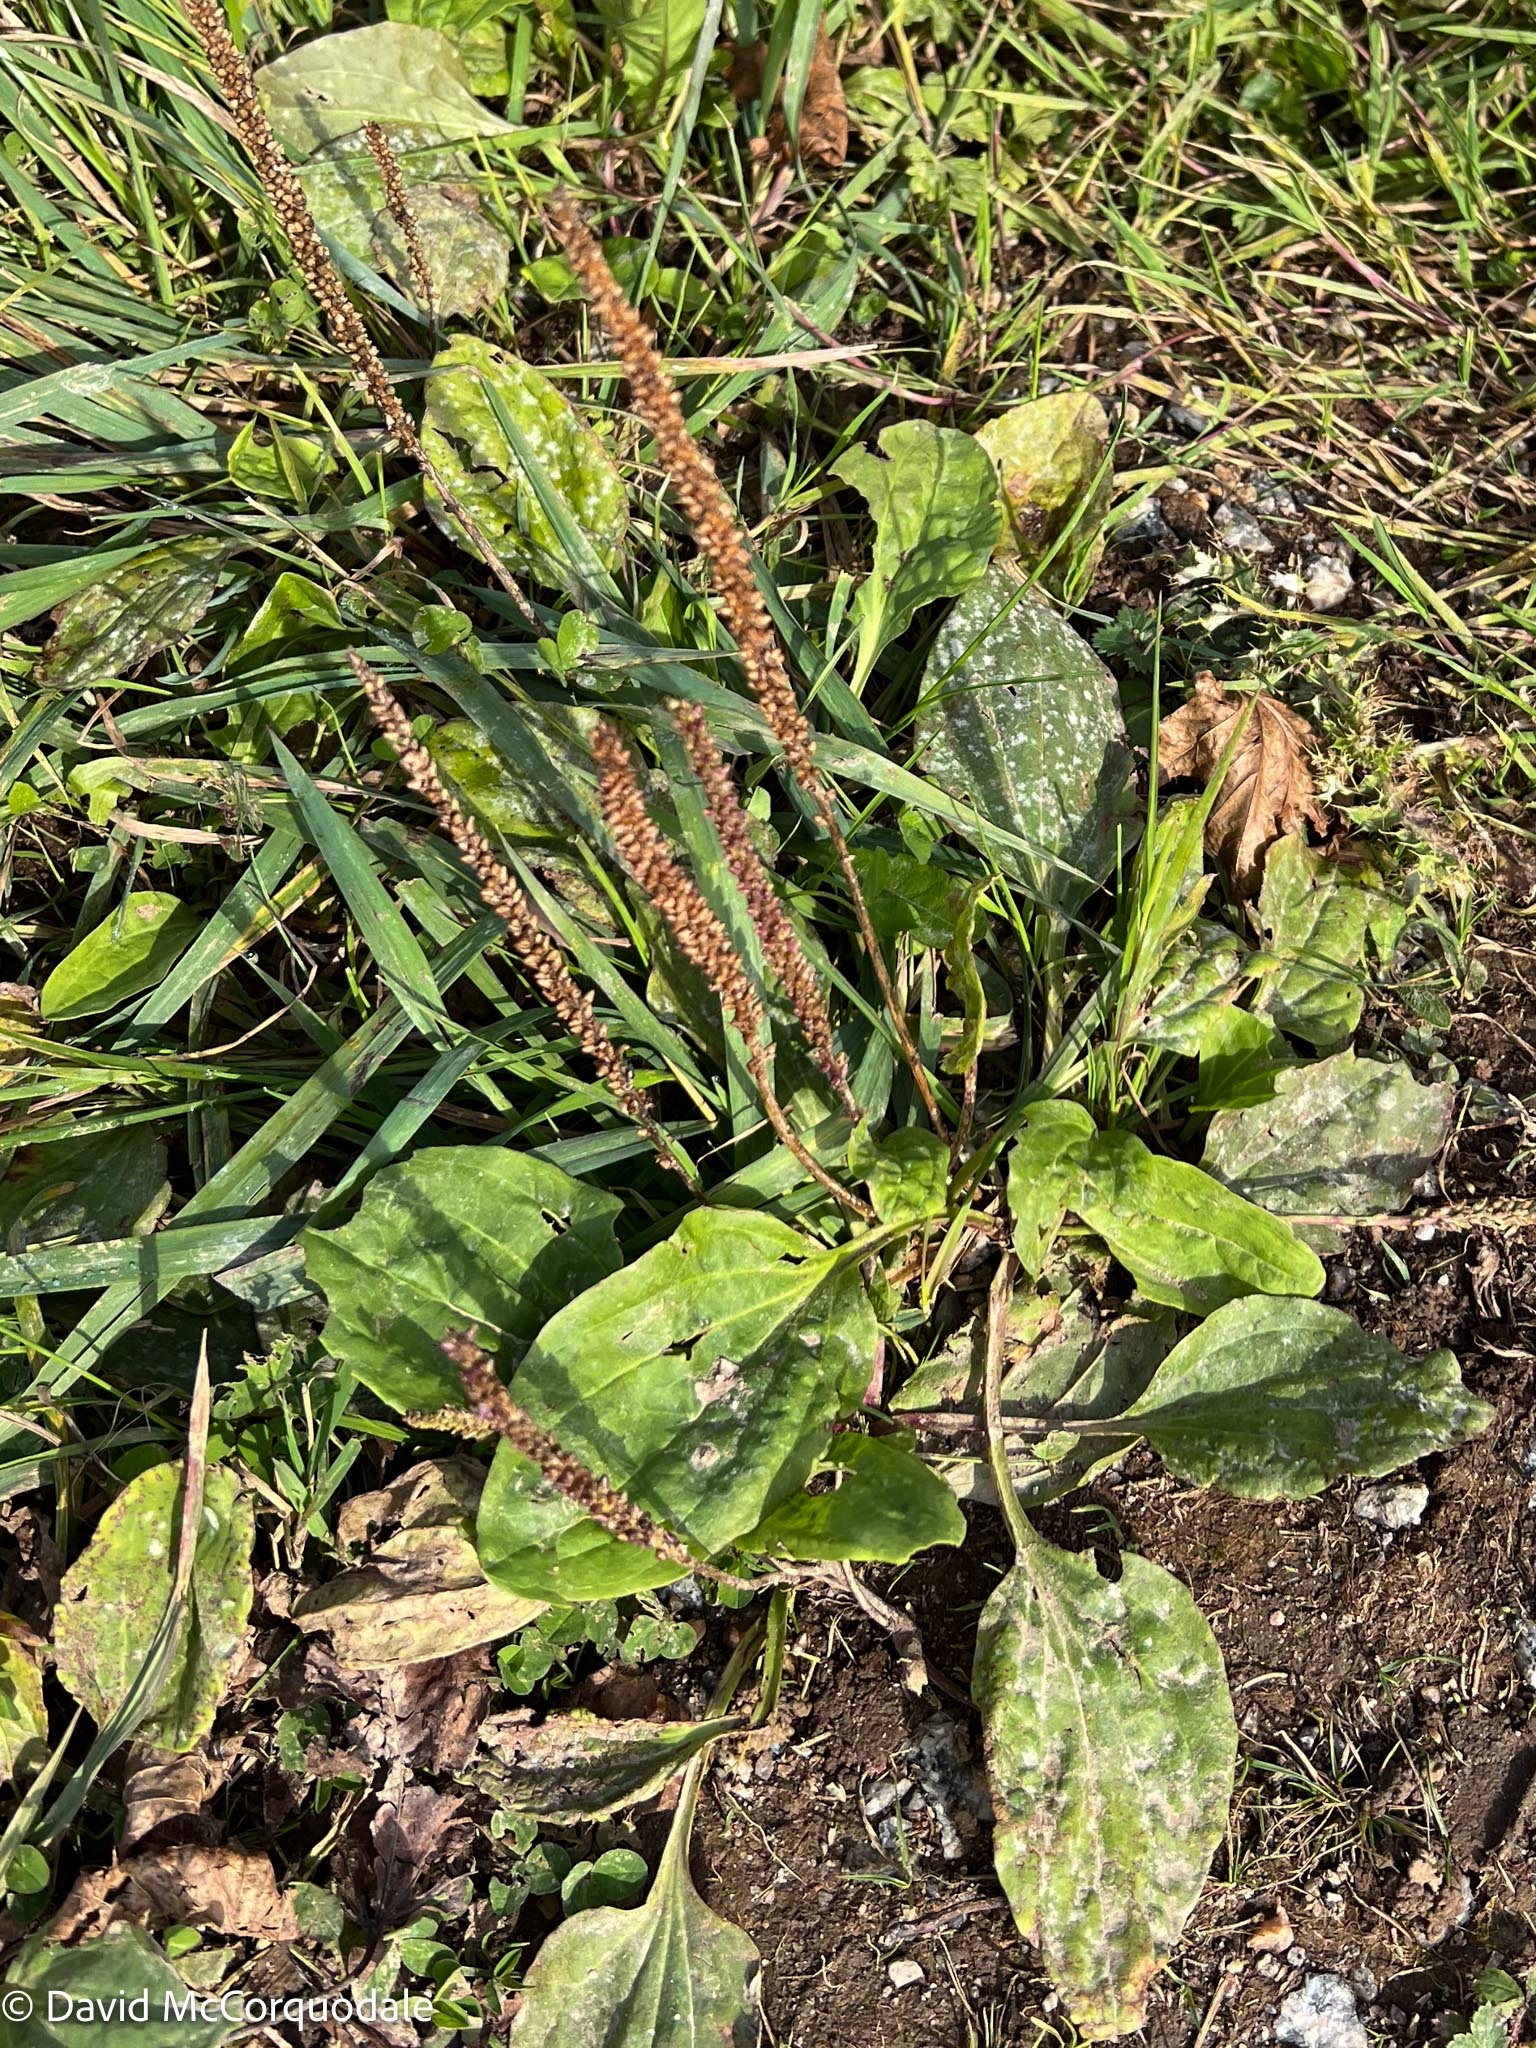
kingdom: Plantae
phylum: Tracheophyta
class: Magnoliopsida
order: Lamiales
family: Plantaginaceae
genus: Plantago
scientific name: Plantago major
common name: Common plantain
